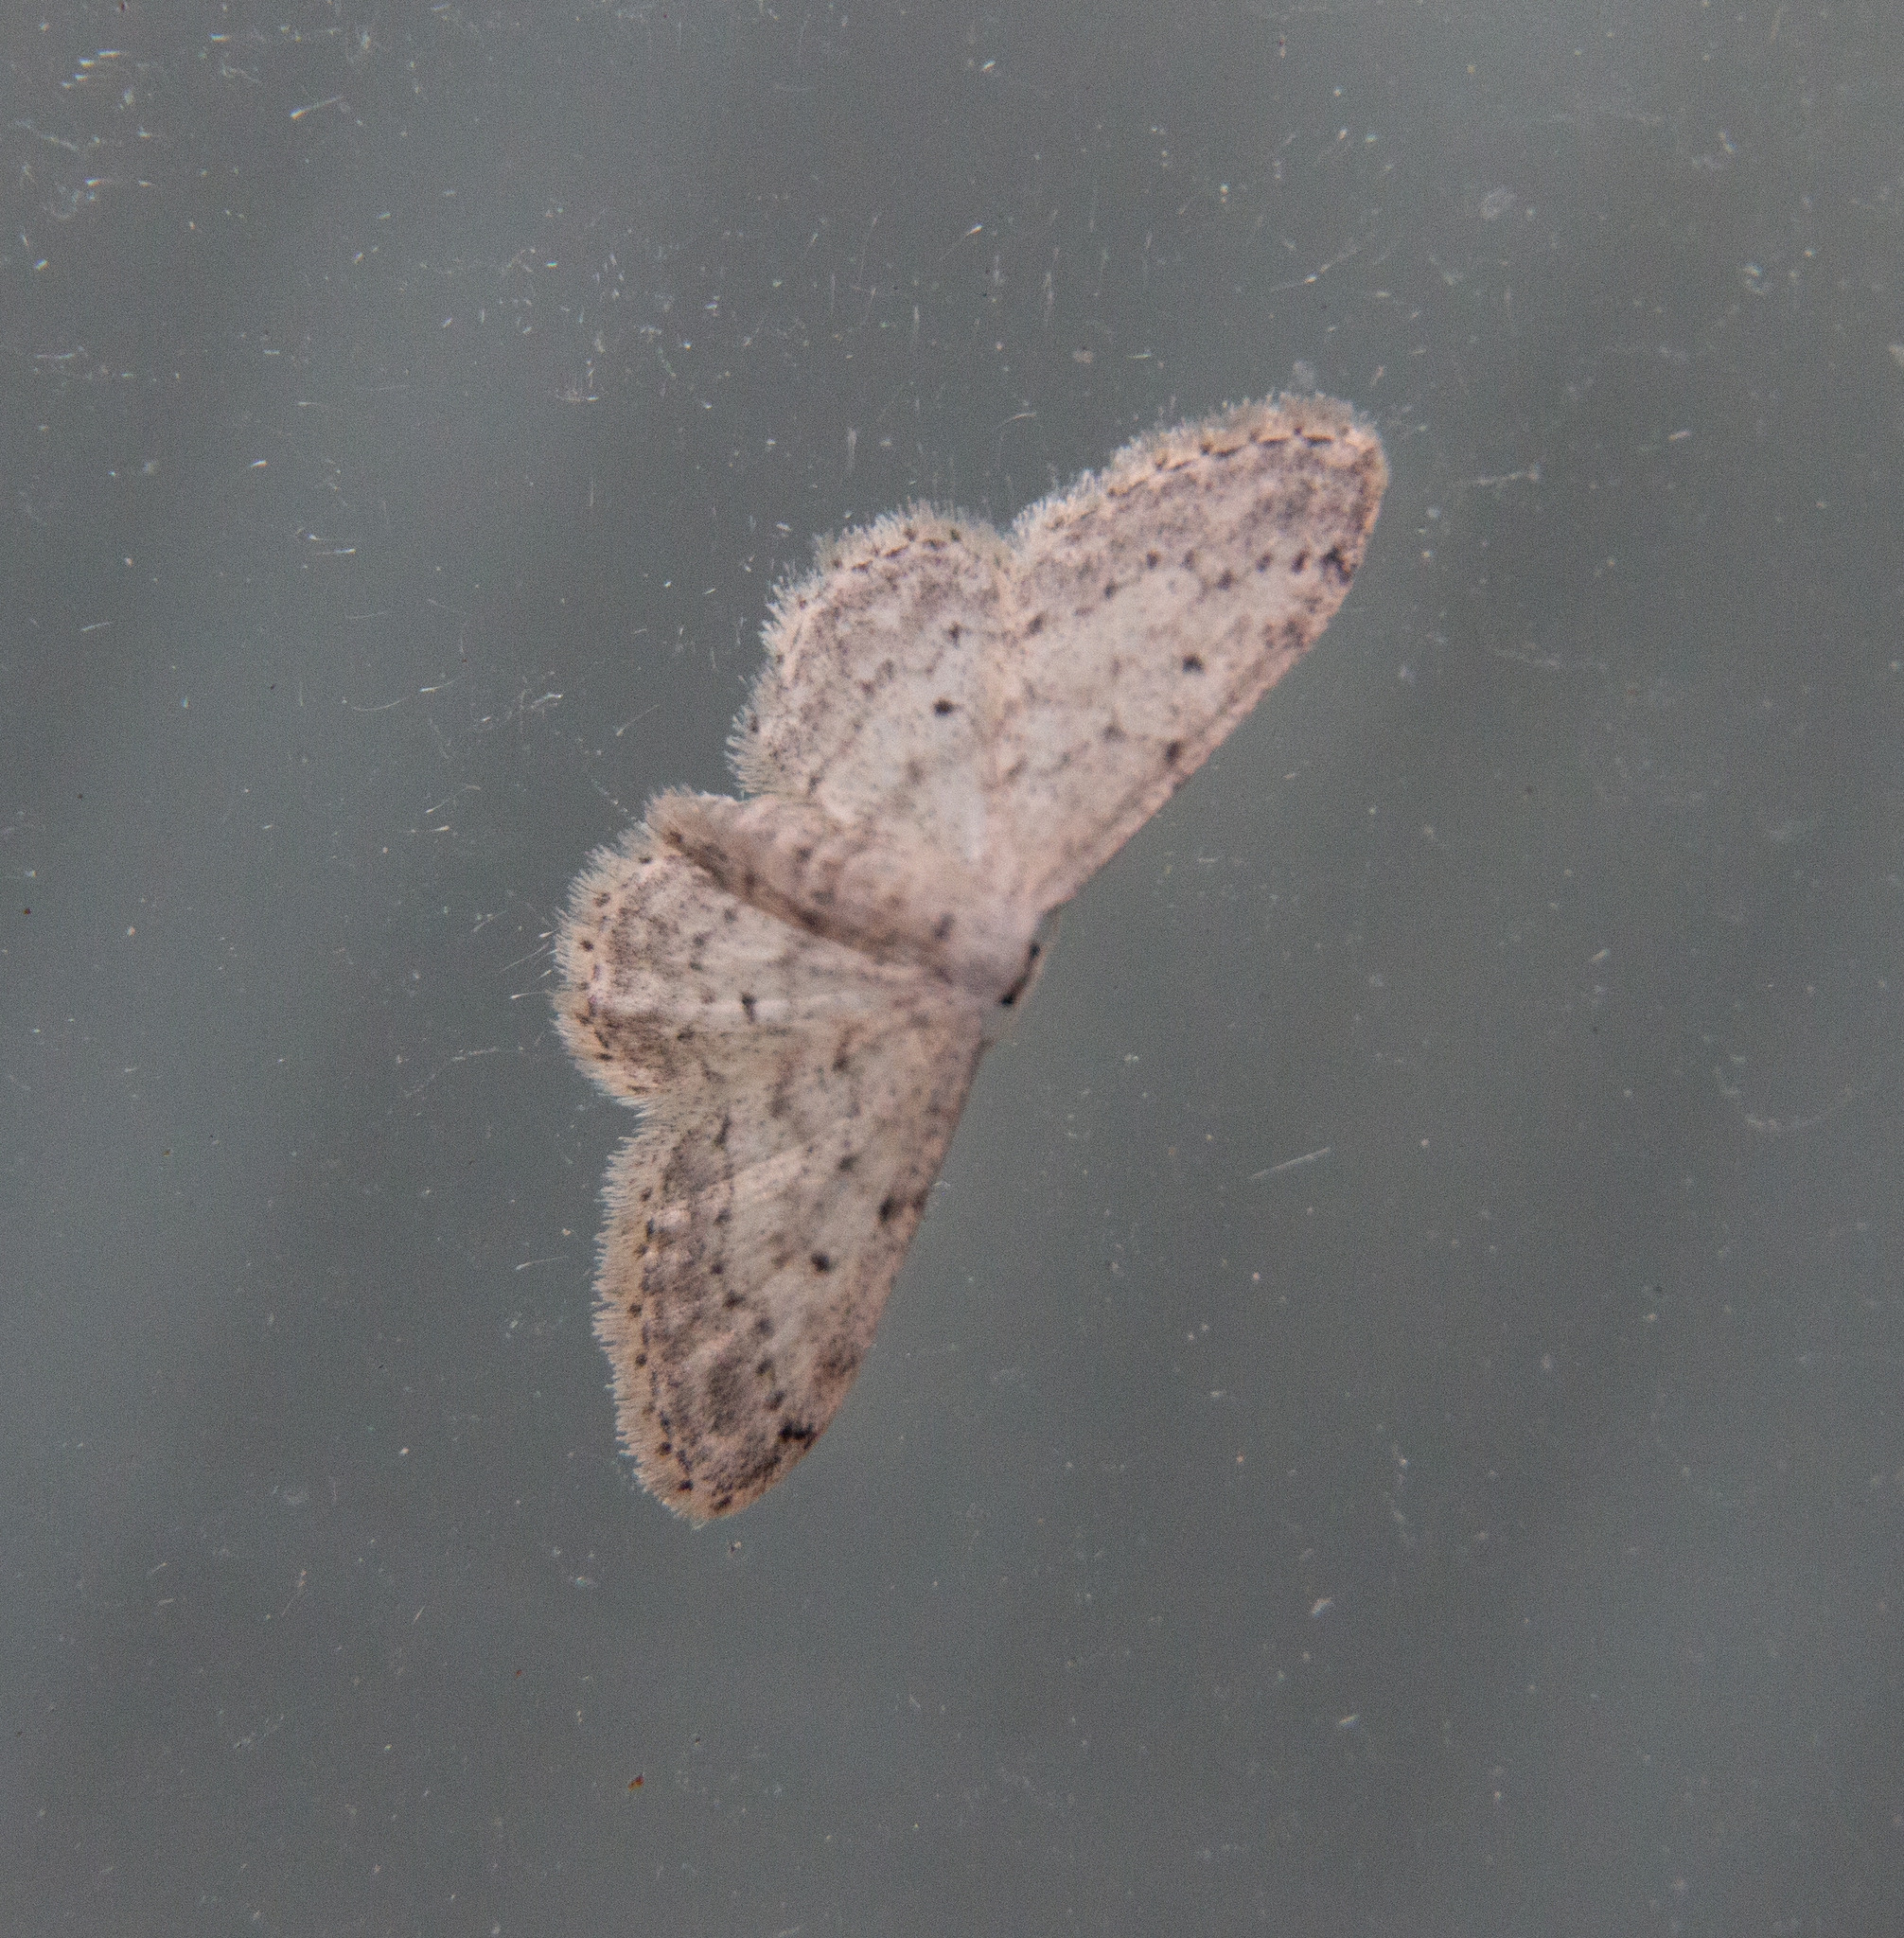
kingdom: Animalia
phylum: Arthropoda
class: Insecta
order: Lepidoptera
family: Geometridae
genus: Idaea
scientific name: Idaea seriata
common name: Small dusty wave
